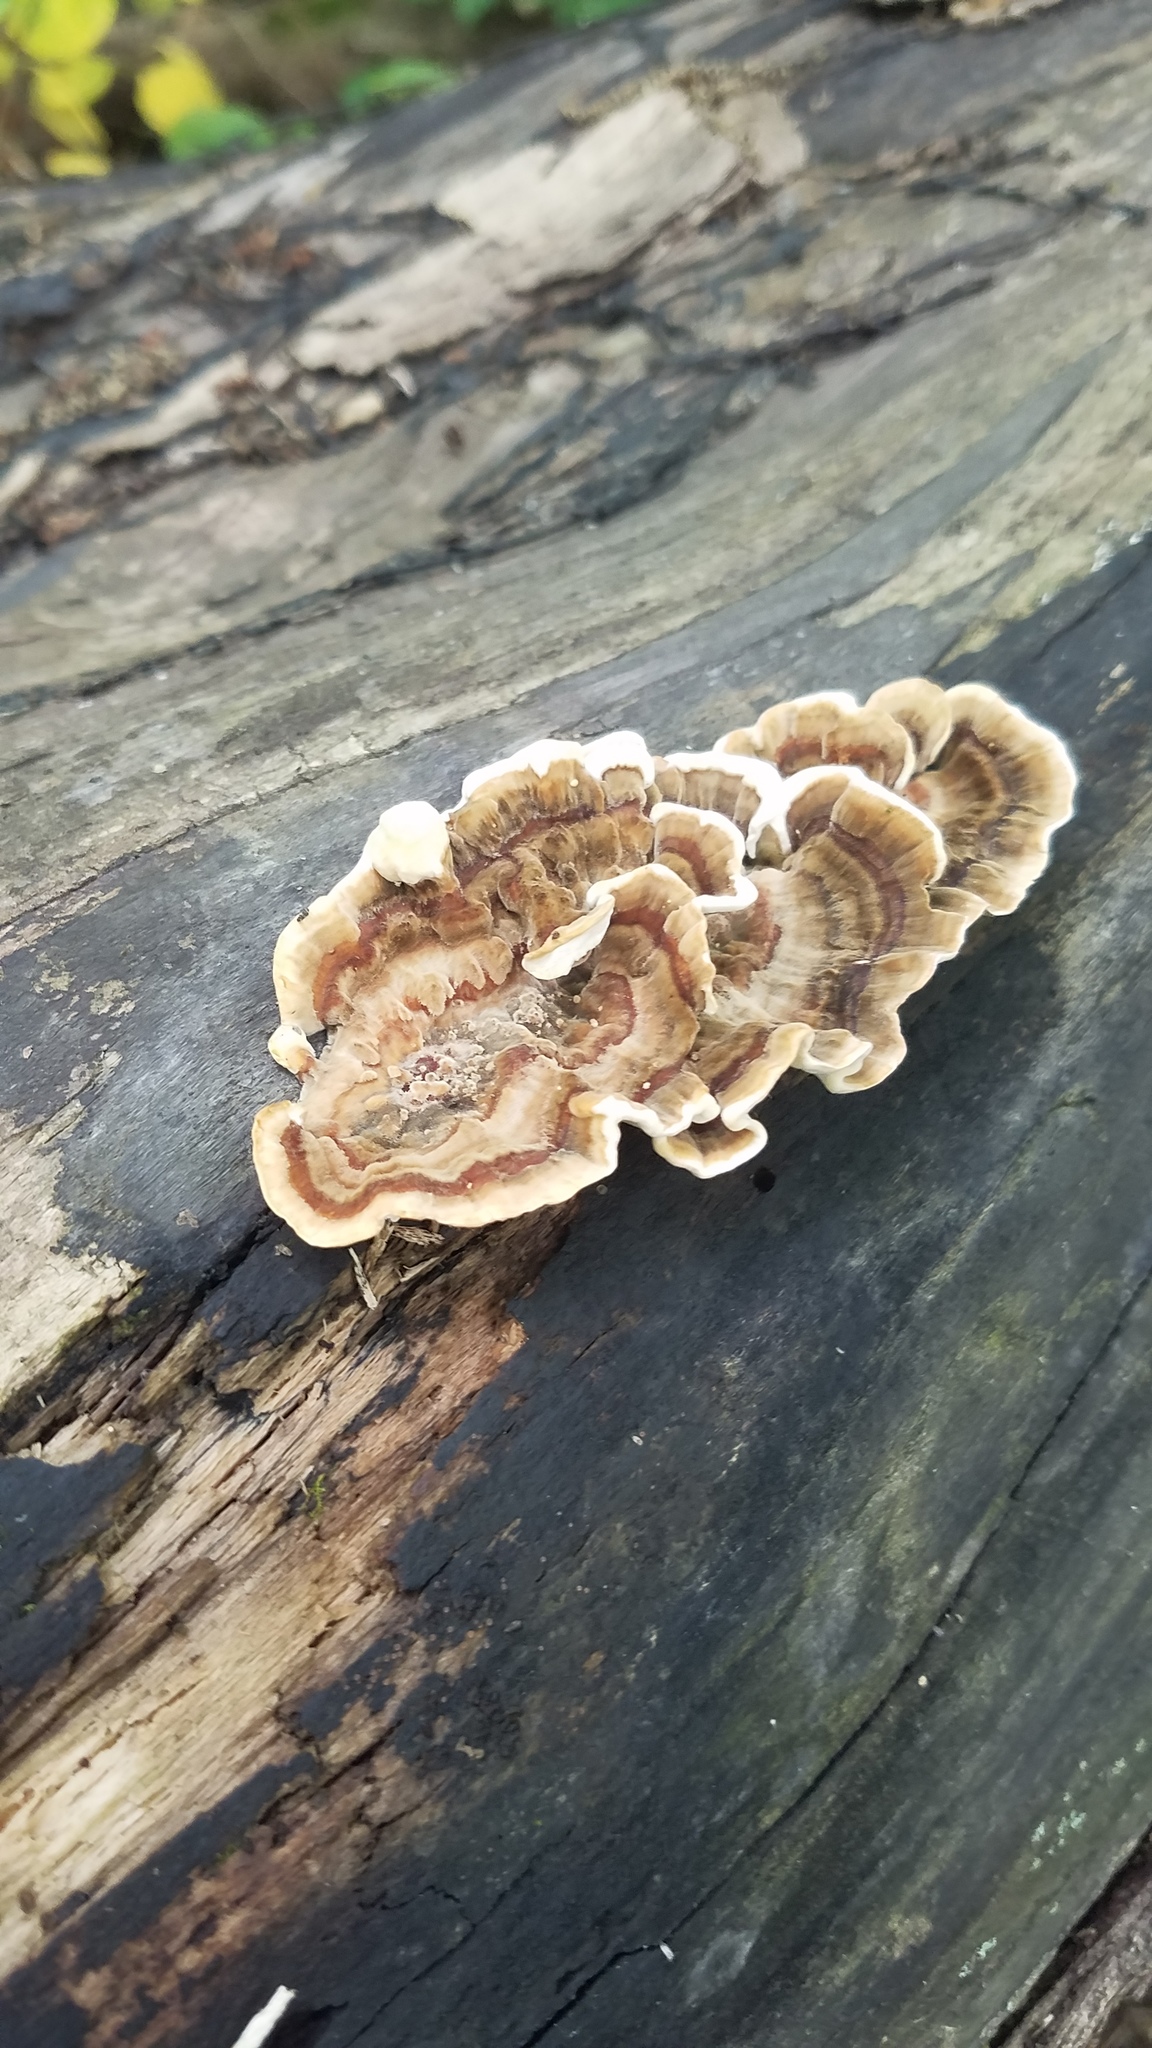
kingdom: Fungi
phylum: Basidiomycota
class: Agaricomycetes
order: Polyporales
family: Polyporaceae
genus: Trametes
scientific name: Trametes versicolor
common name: Turkeytail
